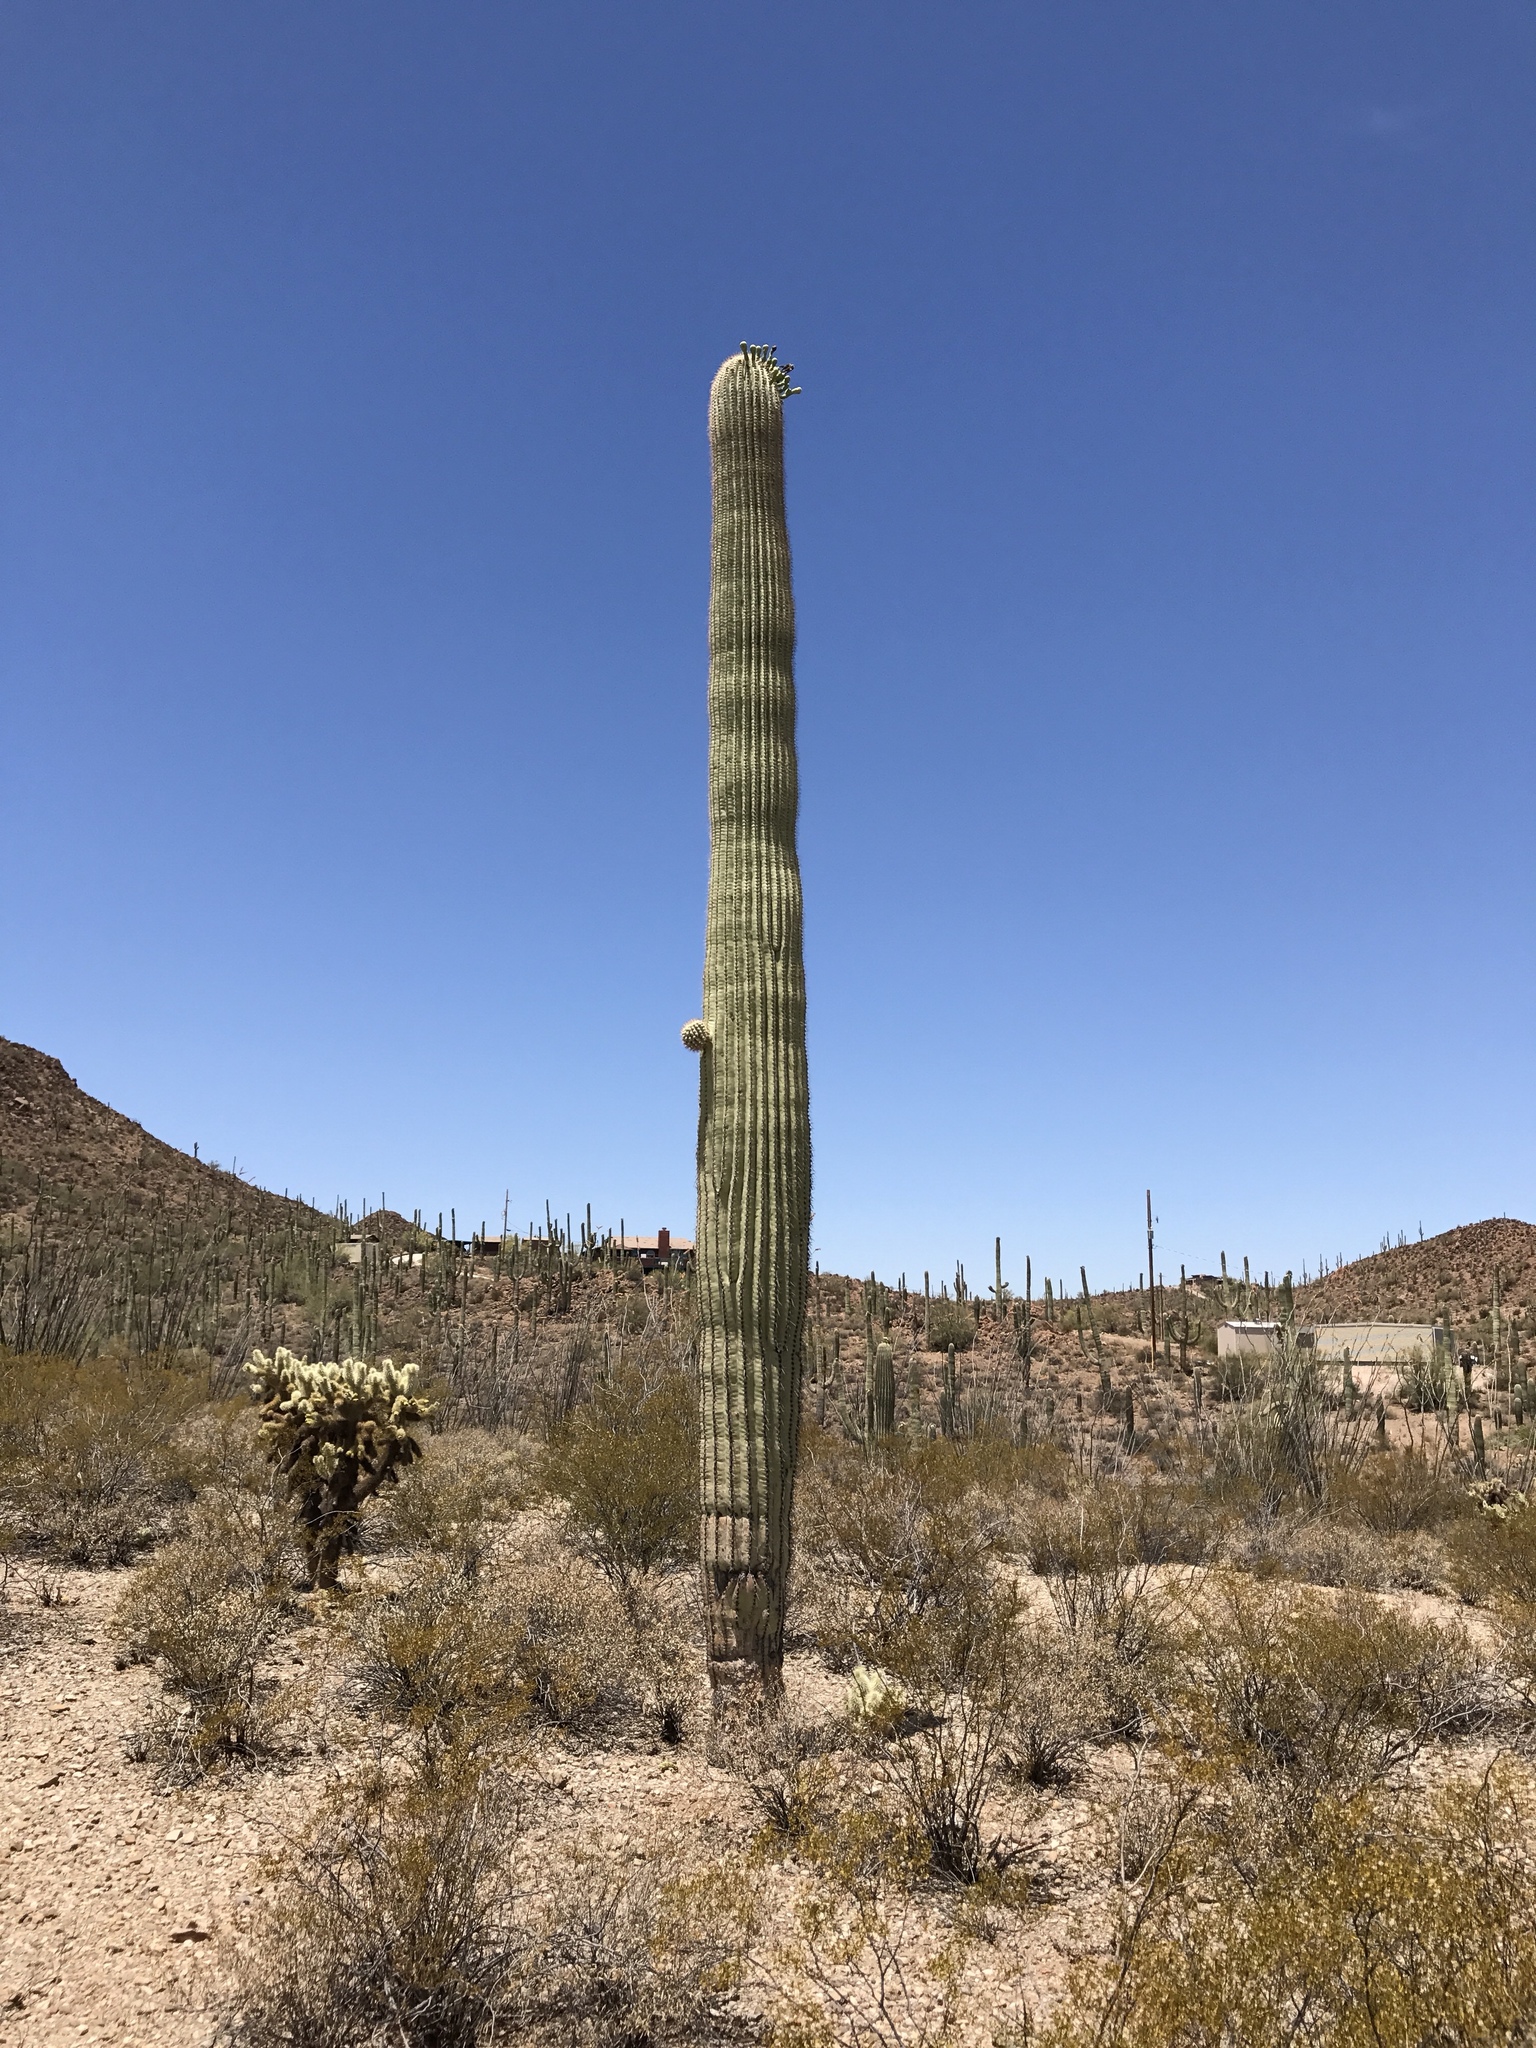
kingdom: Plantae
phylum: Tracheophyta
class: Magnoliopsida
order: Caryophyllales
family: Cactaceae
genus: Carnegiea
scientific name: Carnegiea gigantea
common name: Saguaro
